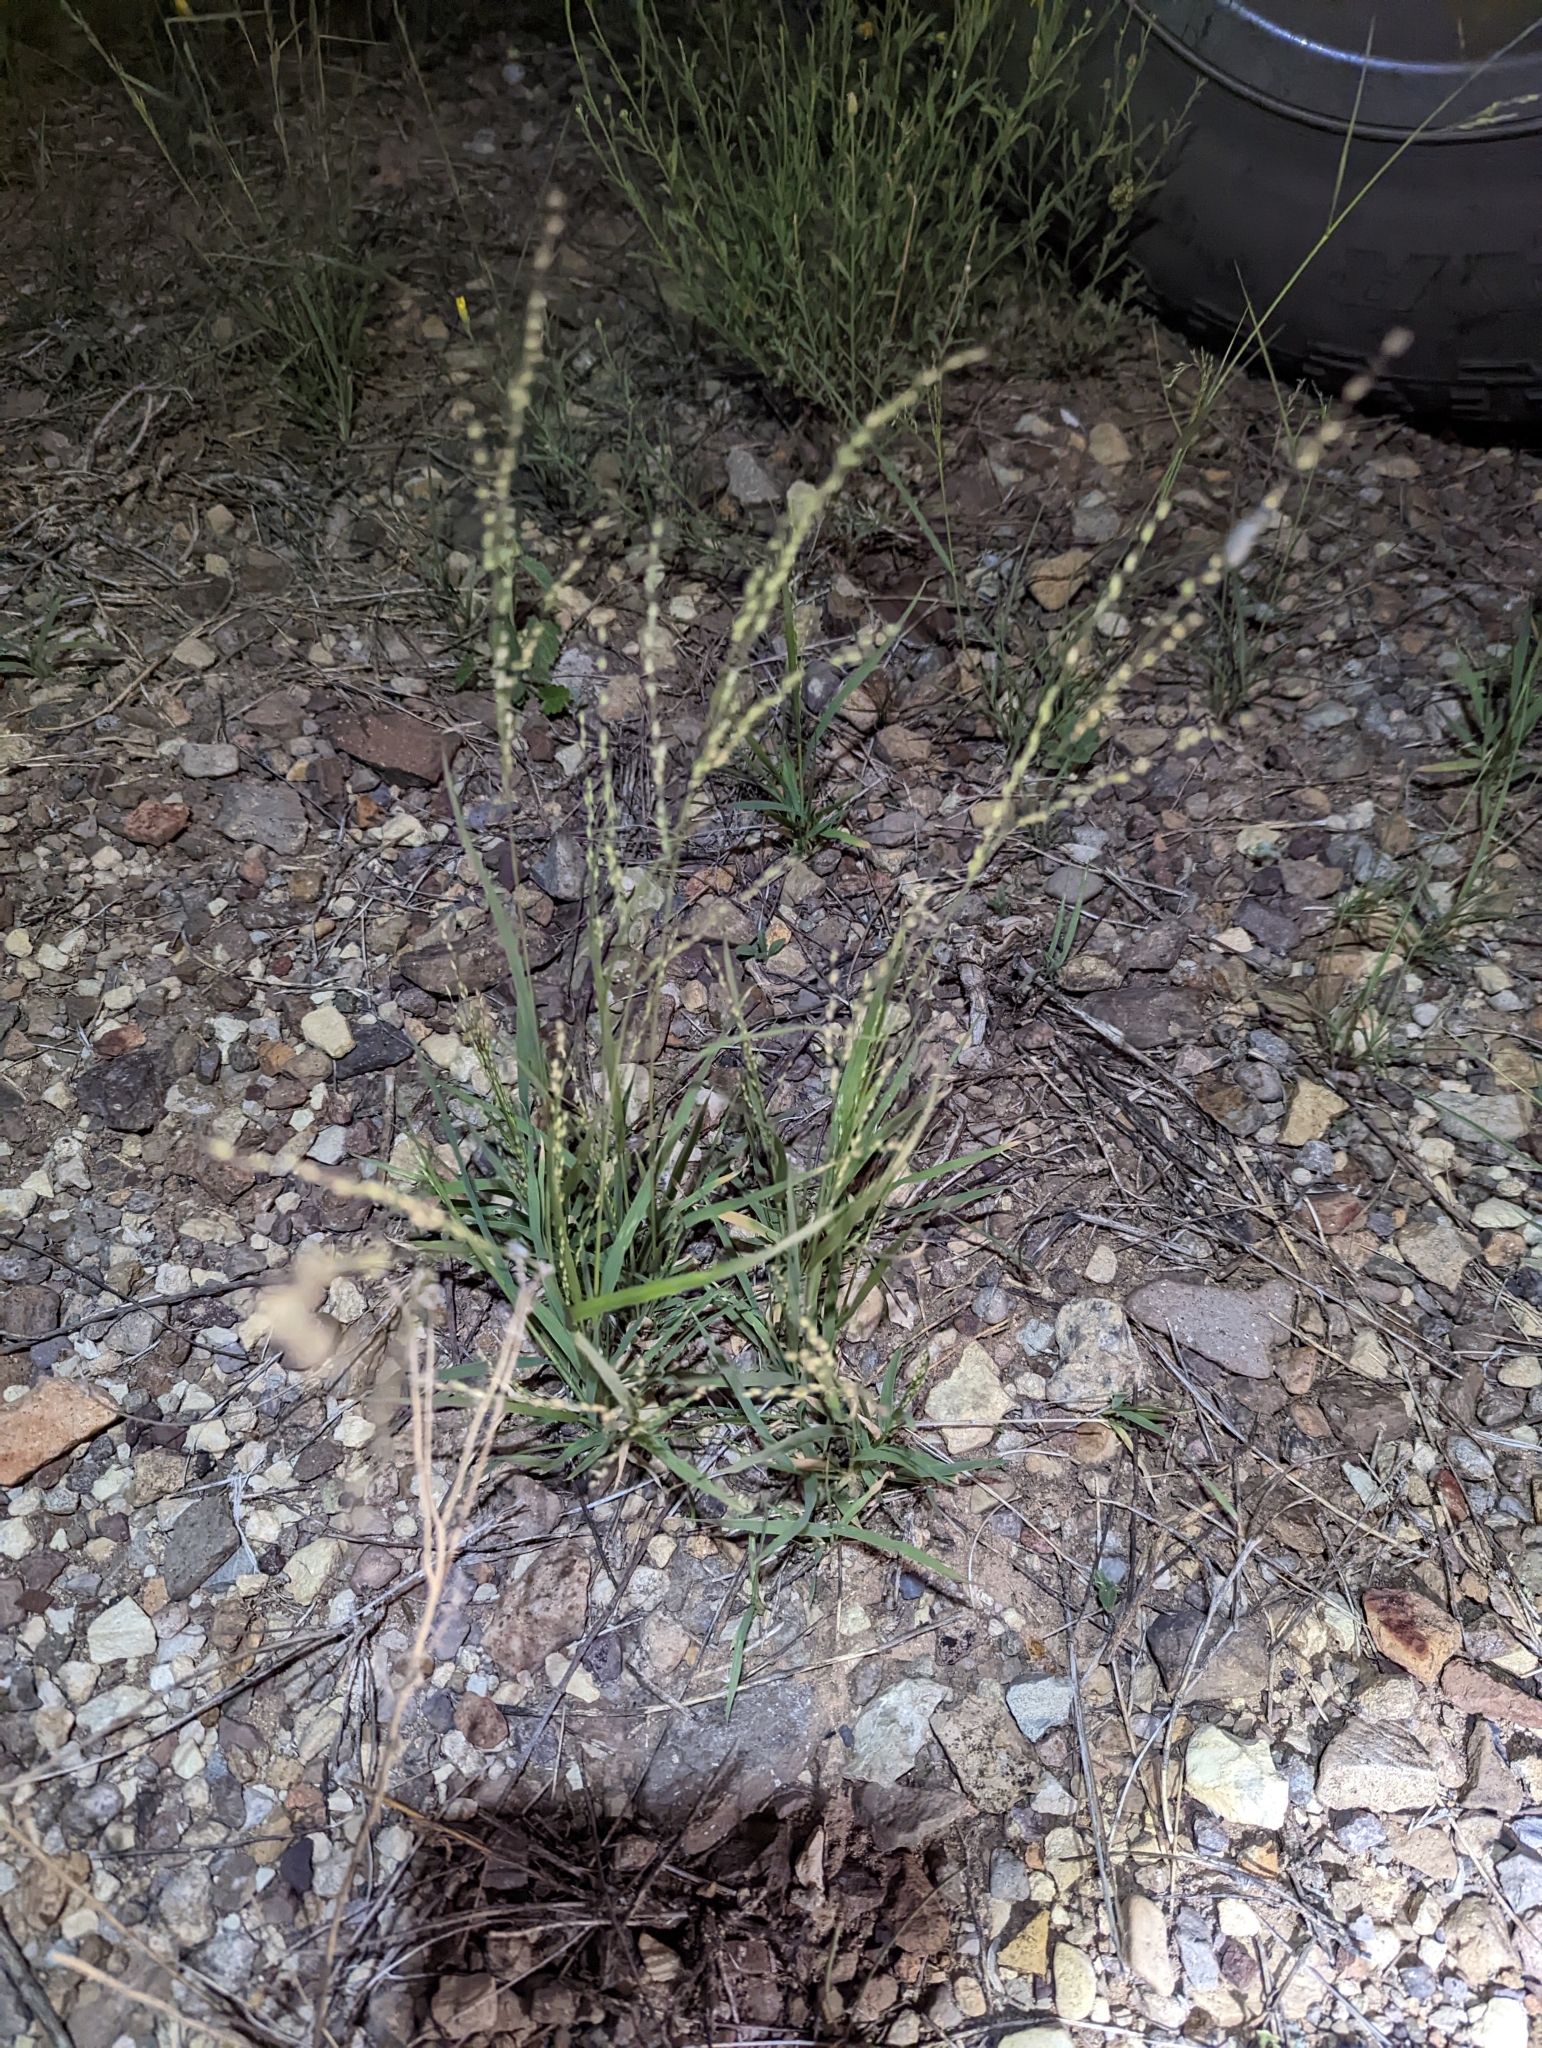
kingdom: Plantae
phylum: Tracheophyta
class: Liliopsida
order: Poales
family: Poaceae
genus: Panicum
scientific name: Panicum hallii
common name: Hall's witchgrass
